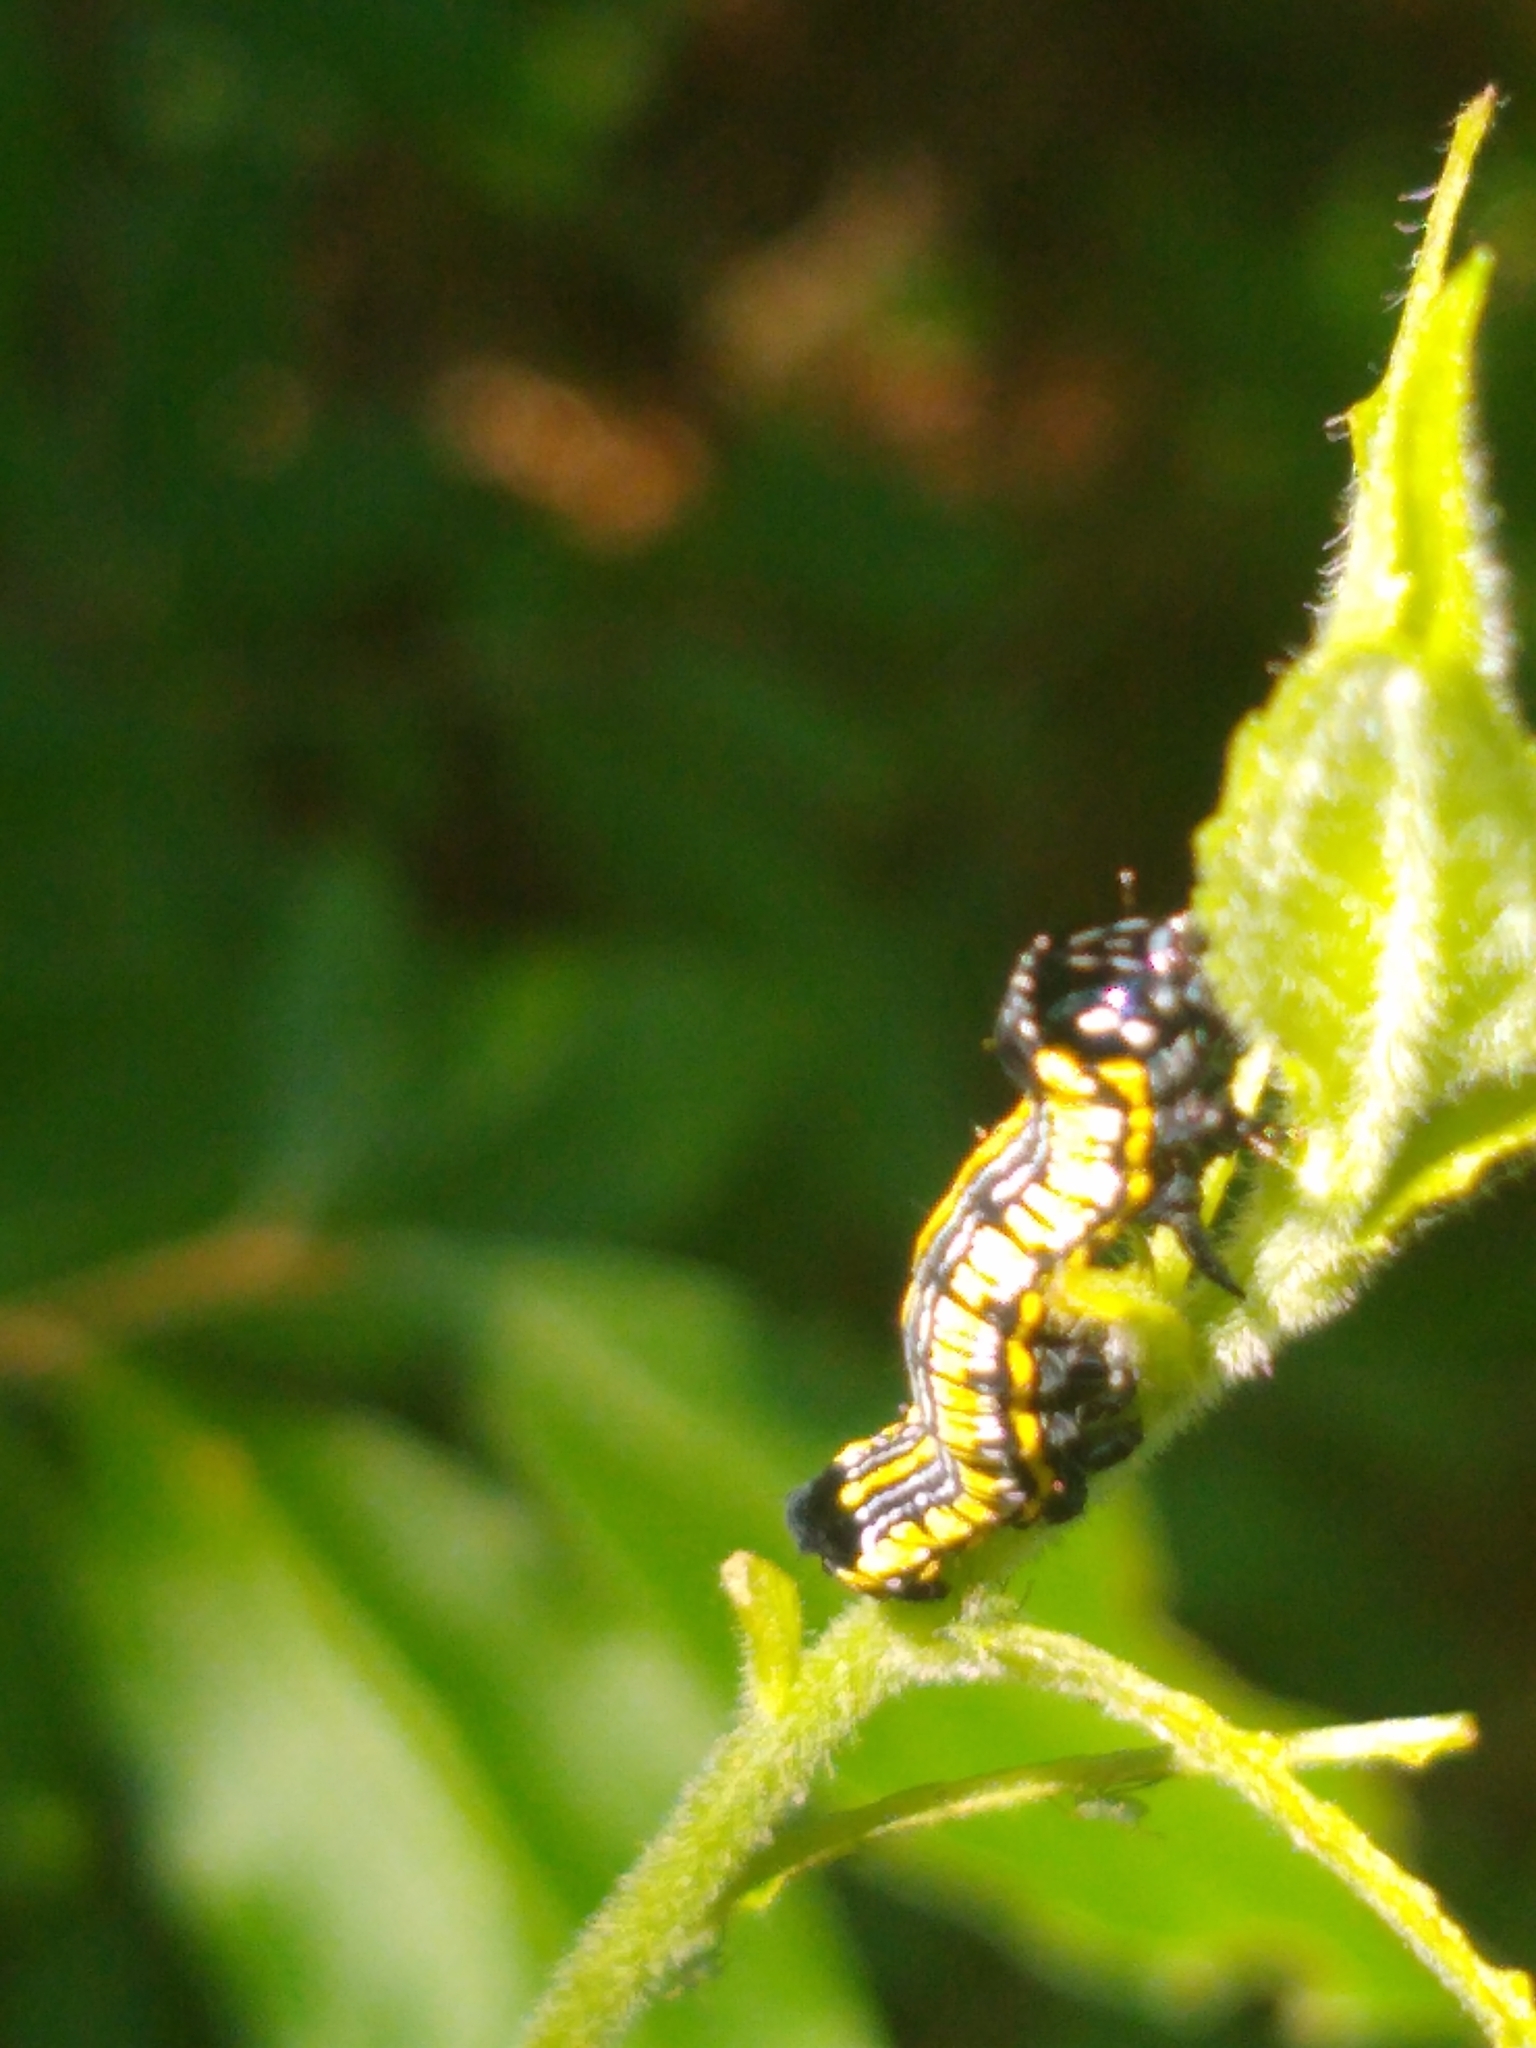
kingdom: Animalia
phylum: Arthropoda
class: Insecta
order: Lepidoptera
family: Noctuidae
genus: Cucullia
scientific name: Cucullia convexipennis
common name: Brown-hooded owlet
